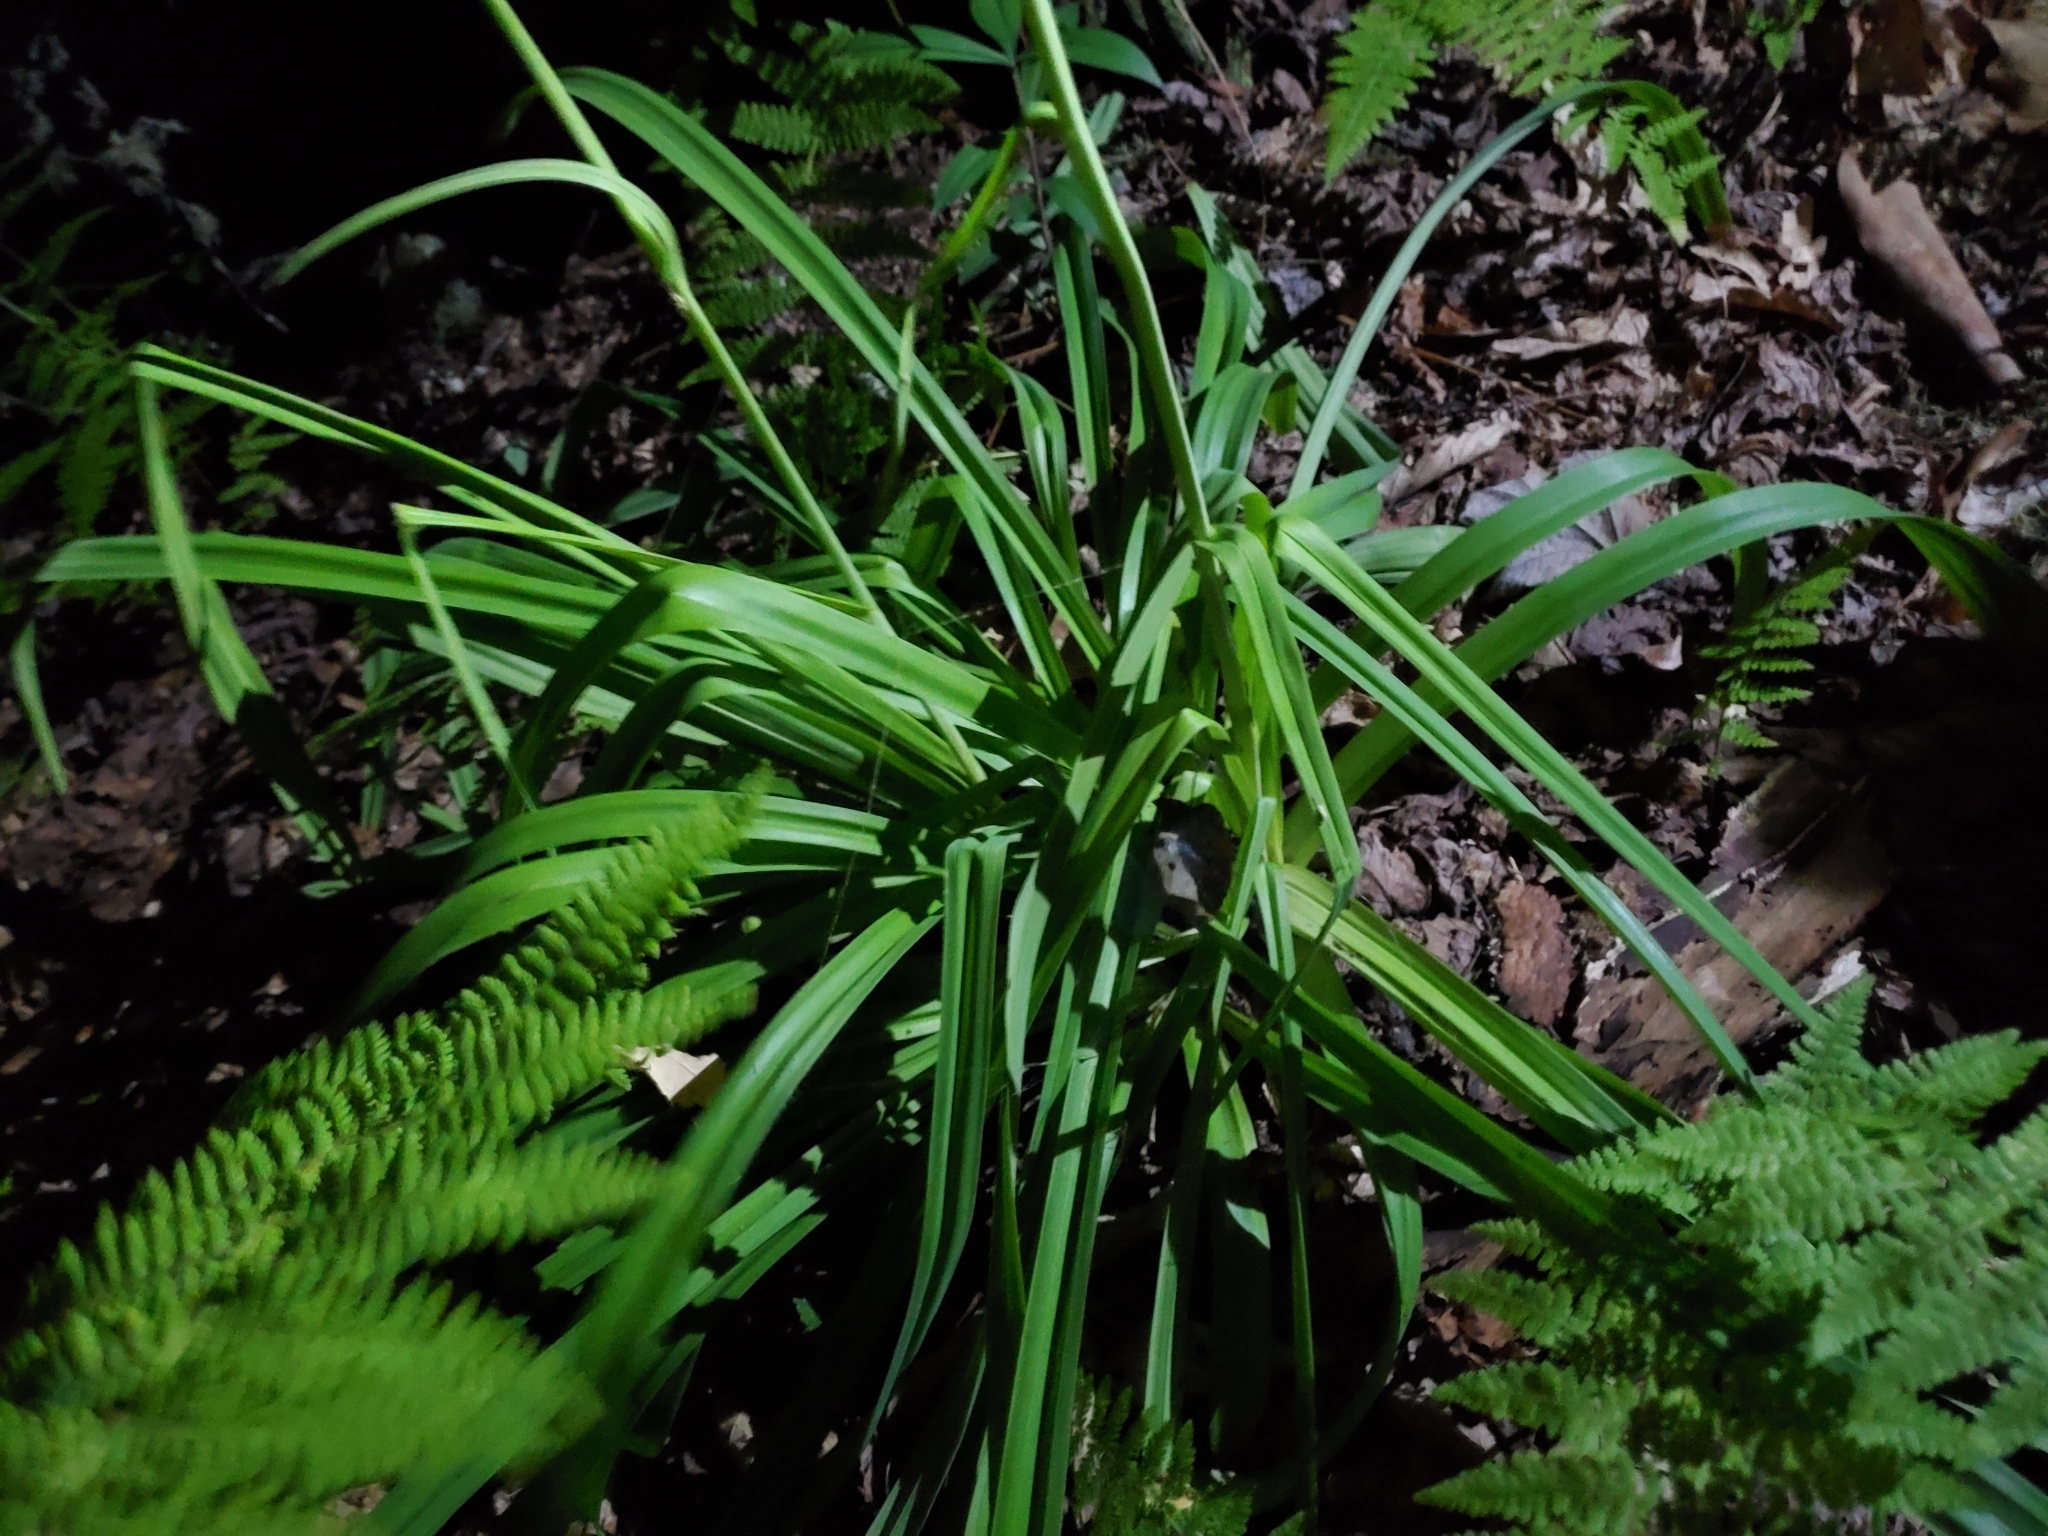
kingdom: Plantae
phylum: Tracheophyta
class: Liliopsida
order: Liliales
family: Melanthiaceae
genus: Amianthium
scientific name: Amianthium muscitoxicum
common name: Fly-poison
